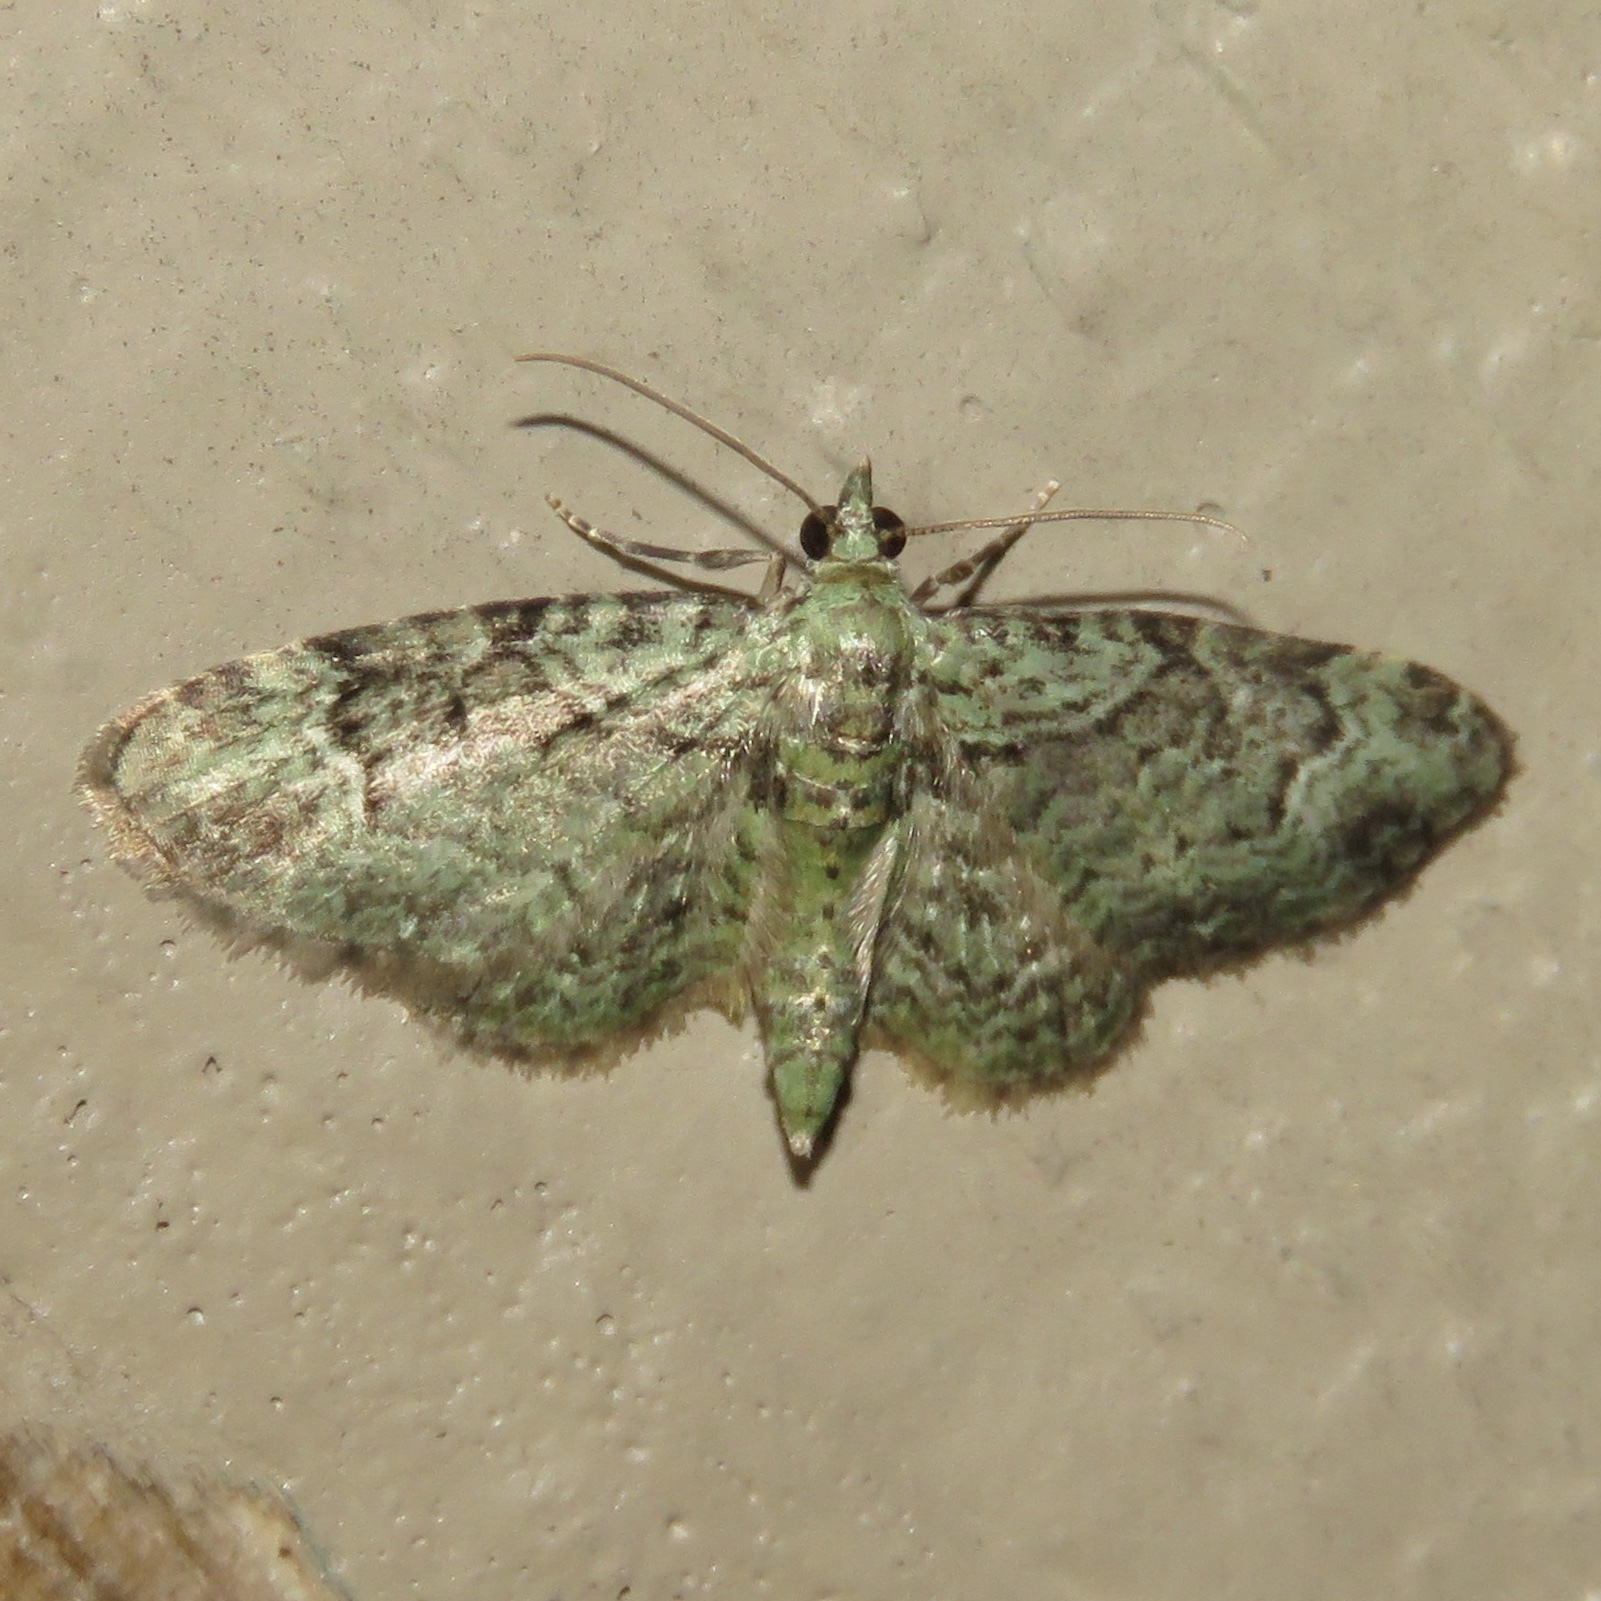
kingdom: Animalia
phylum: Arthropoda
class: Insecta
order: Lepidoptera
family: Geometridae
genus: Pasiphila
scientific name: Pasiphila rectangulata
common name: Green pug
